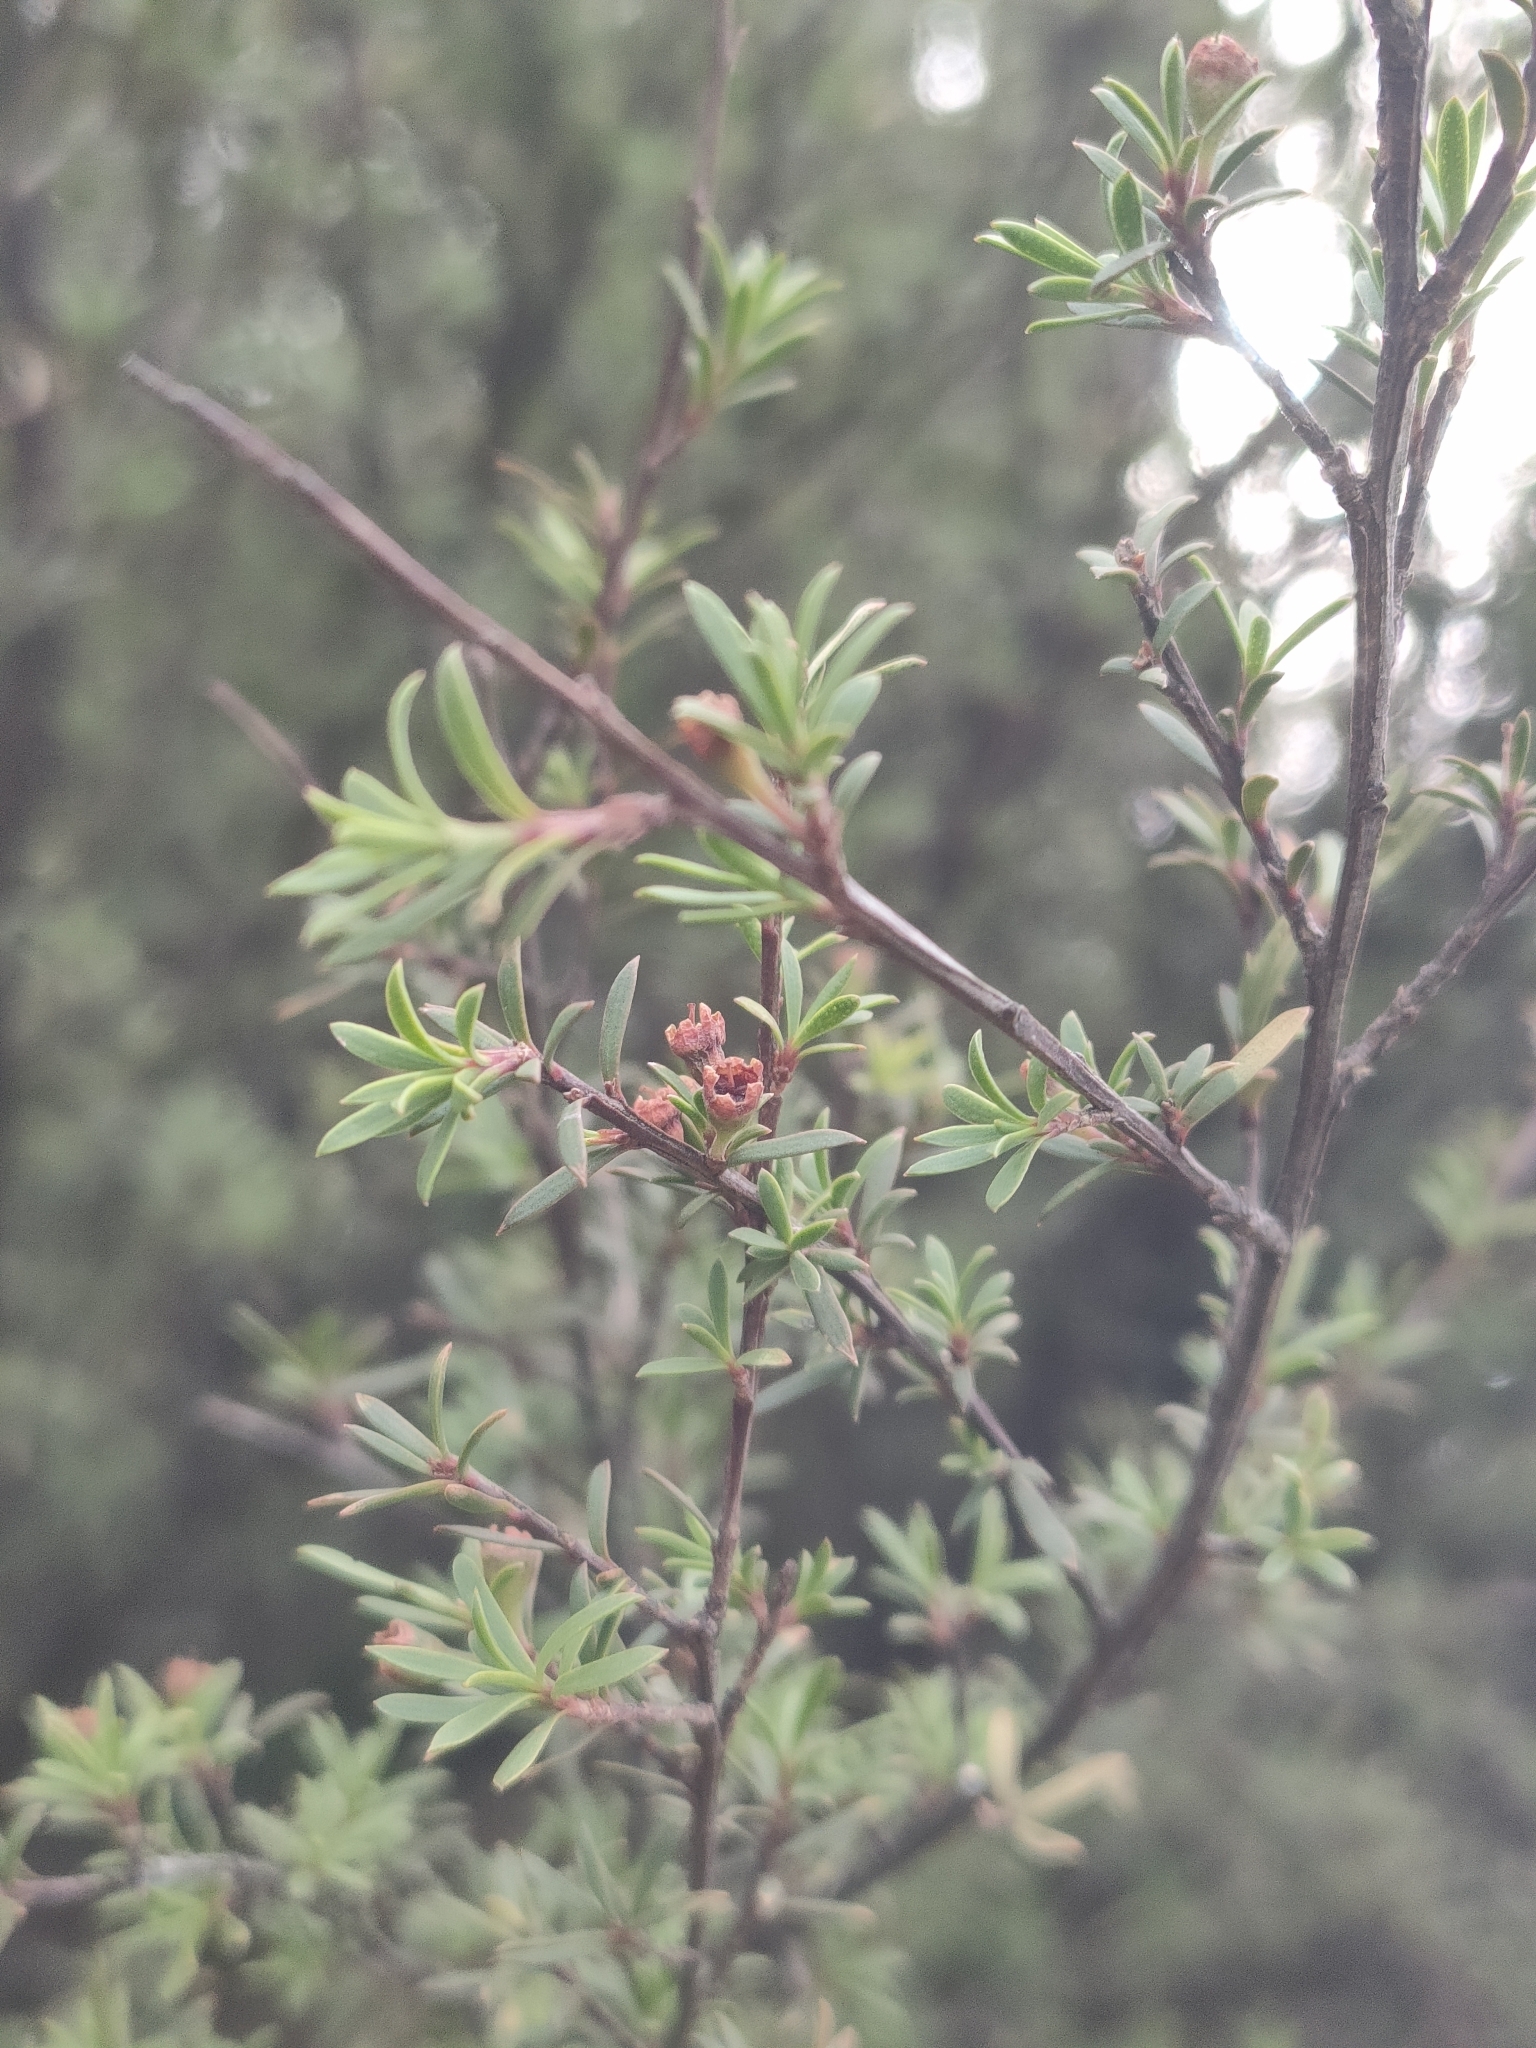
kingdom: Plantae
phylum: Tracheophyta
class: Magnoliopsida
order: Myrtales
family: Myrtaceae
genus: Kunzea
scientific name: Kunzea ericoides
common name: Burgan
